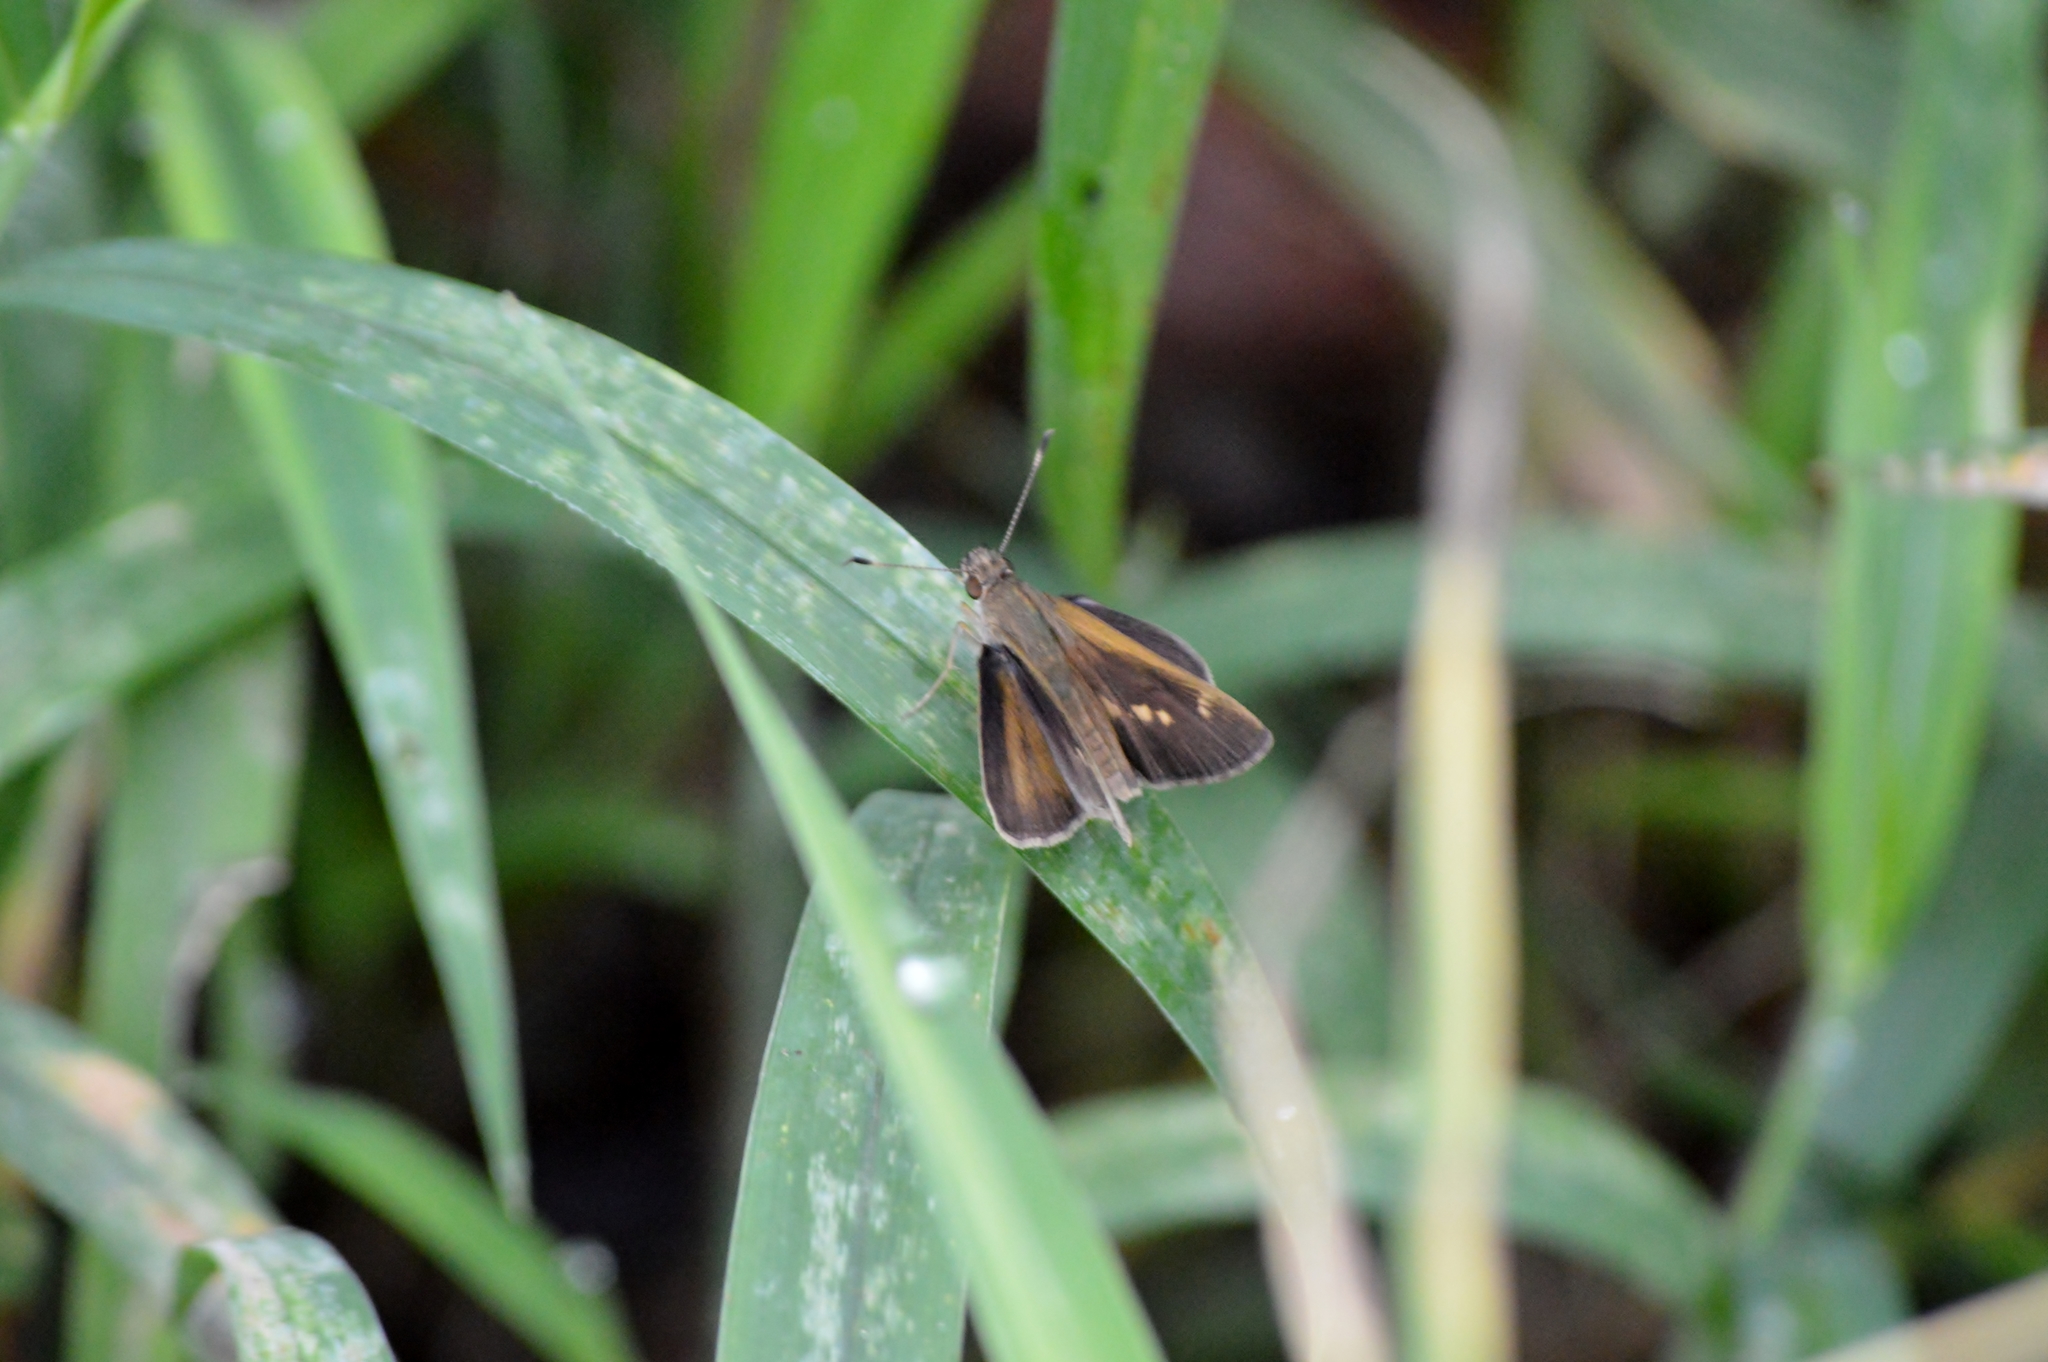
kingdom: Animalia
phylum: Arthropoda
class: Insecta
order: Lepidoptera
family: Hesperiidae
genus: Cobalopsis
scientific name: Cobalopsis nero
